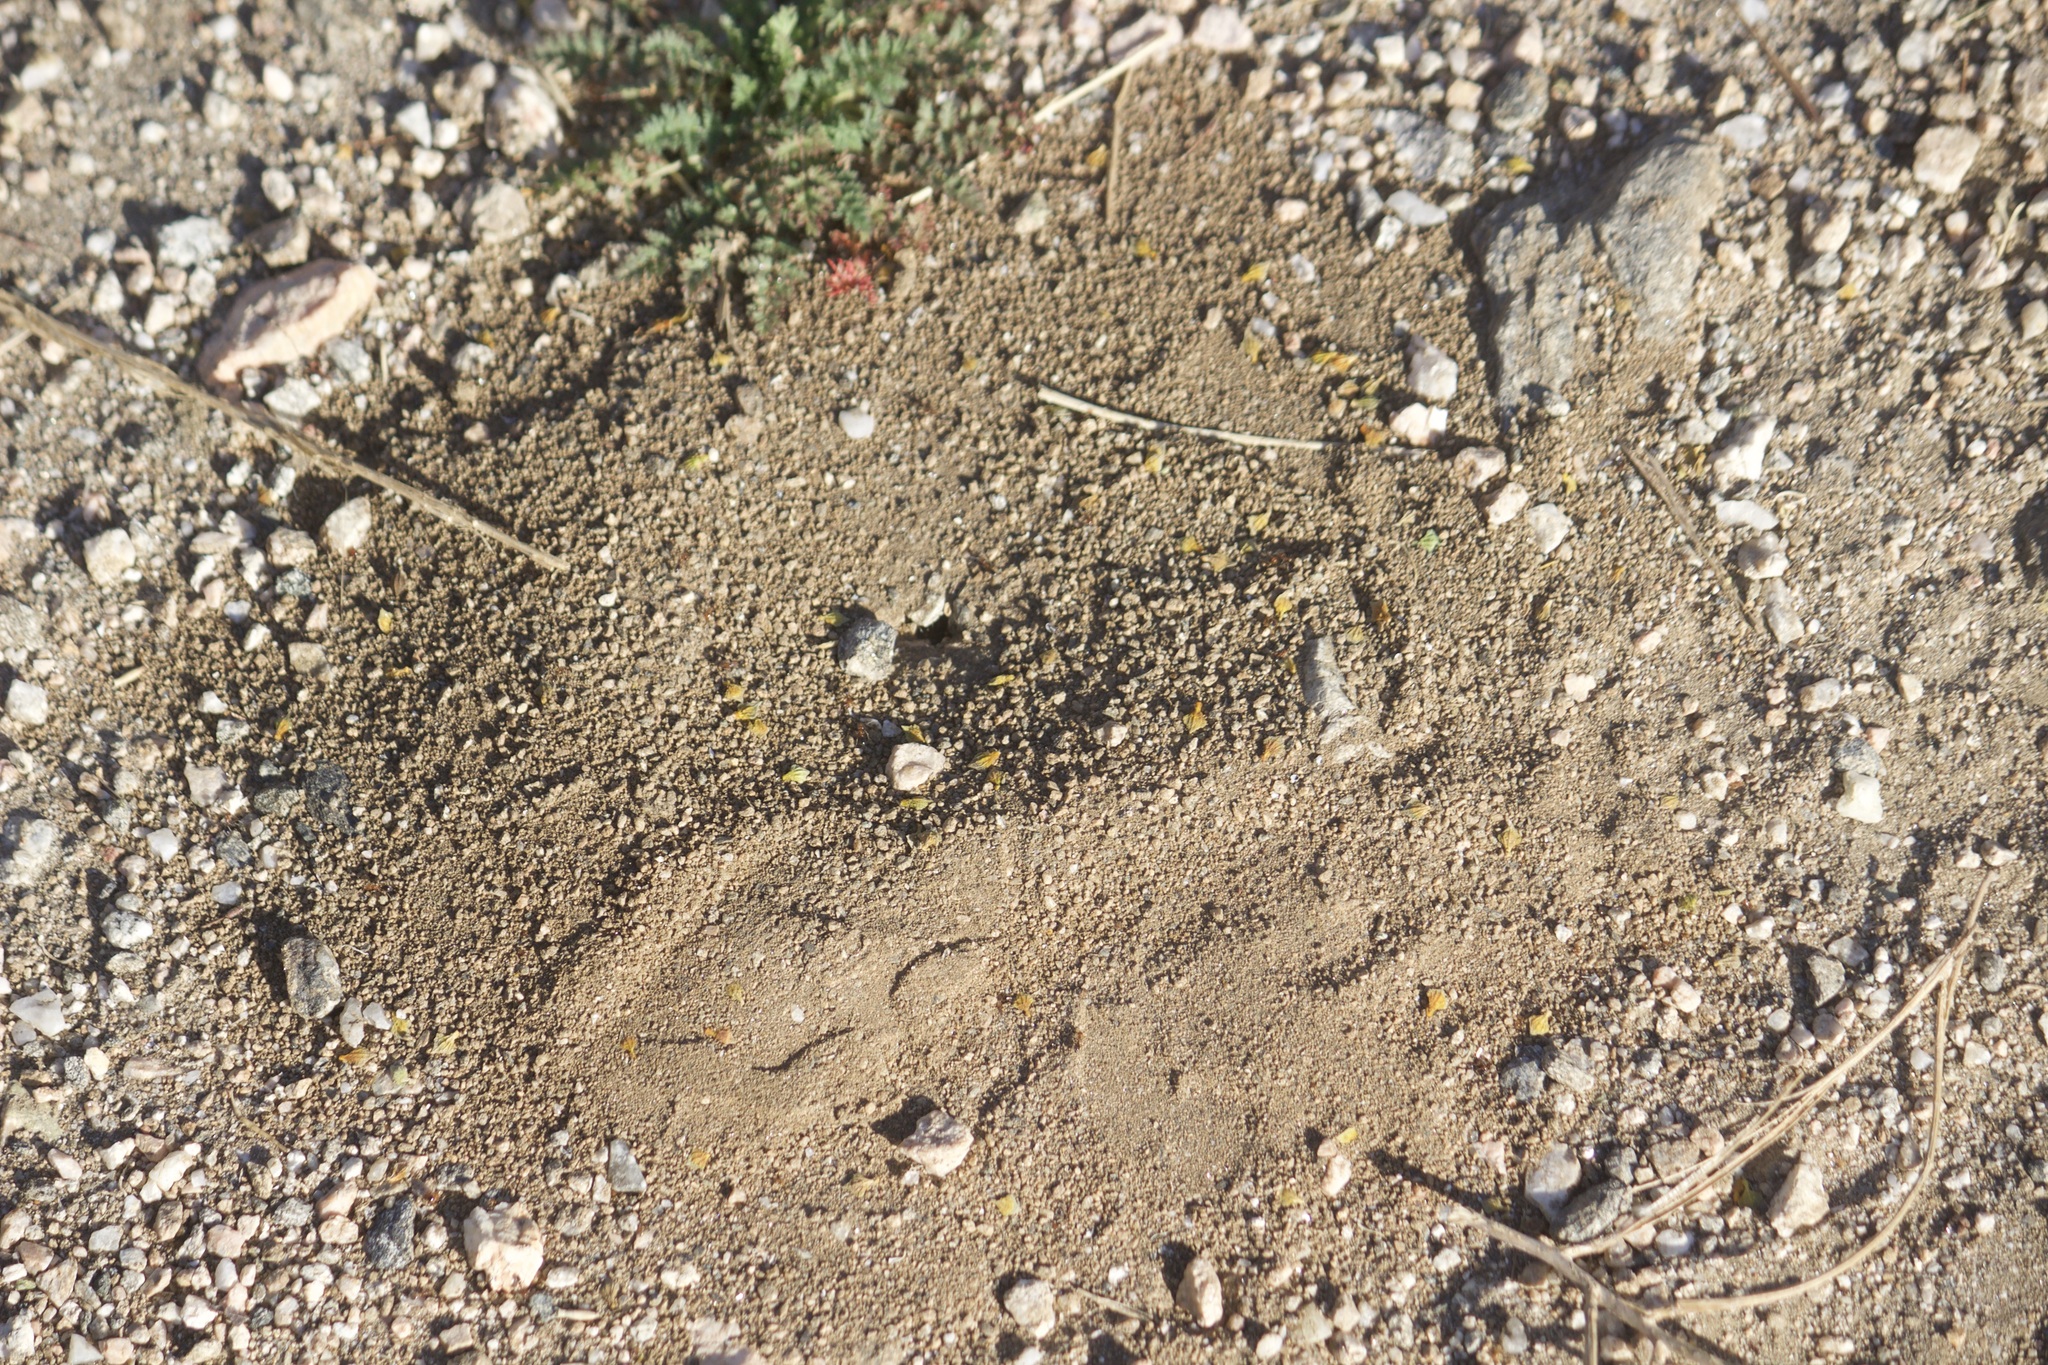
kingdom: Animalia
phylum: Arthropoda
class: Insecta
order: Hymenoptera
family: Formicidae
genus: Dorymyrmex
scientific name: Dorymyrmex bicolor
